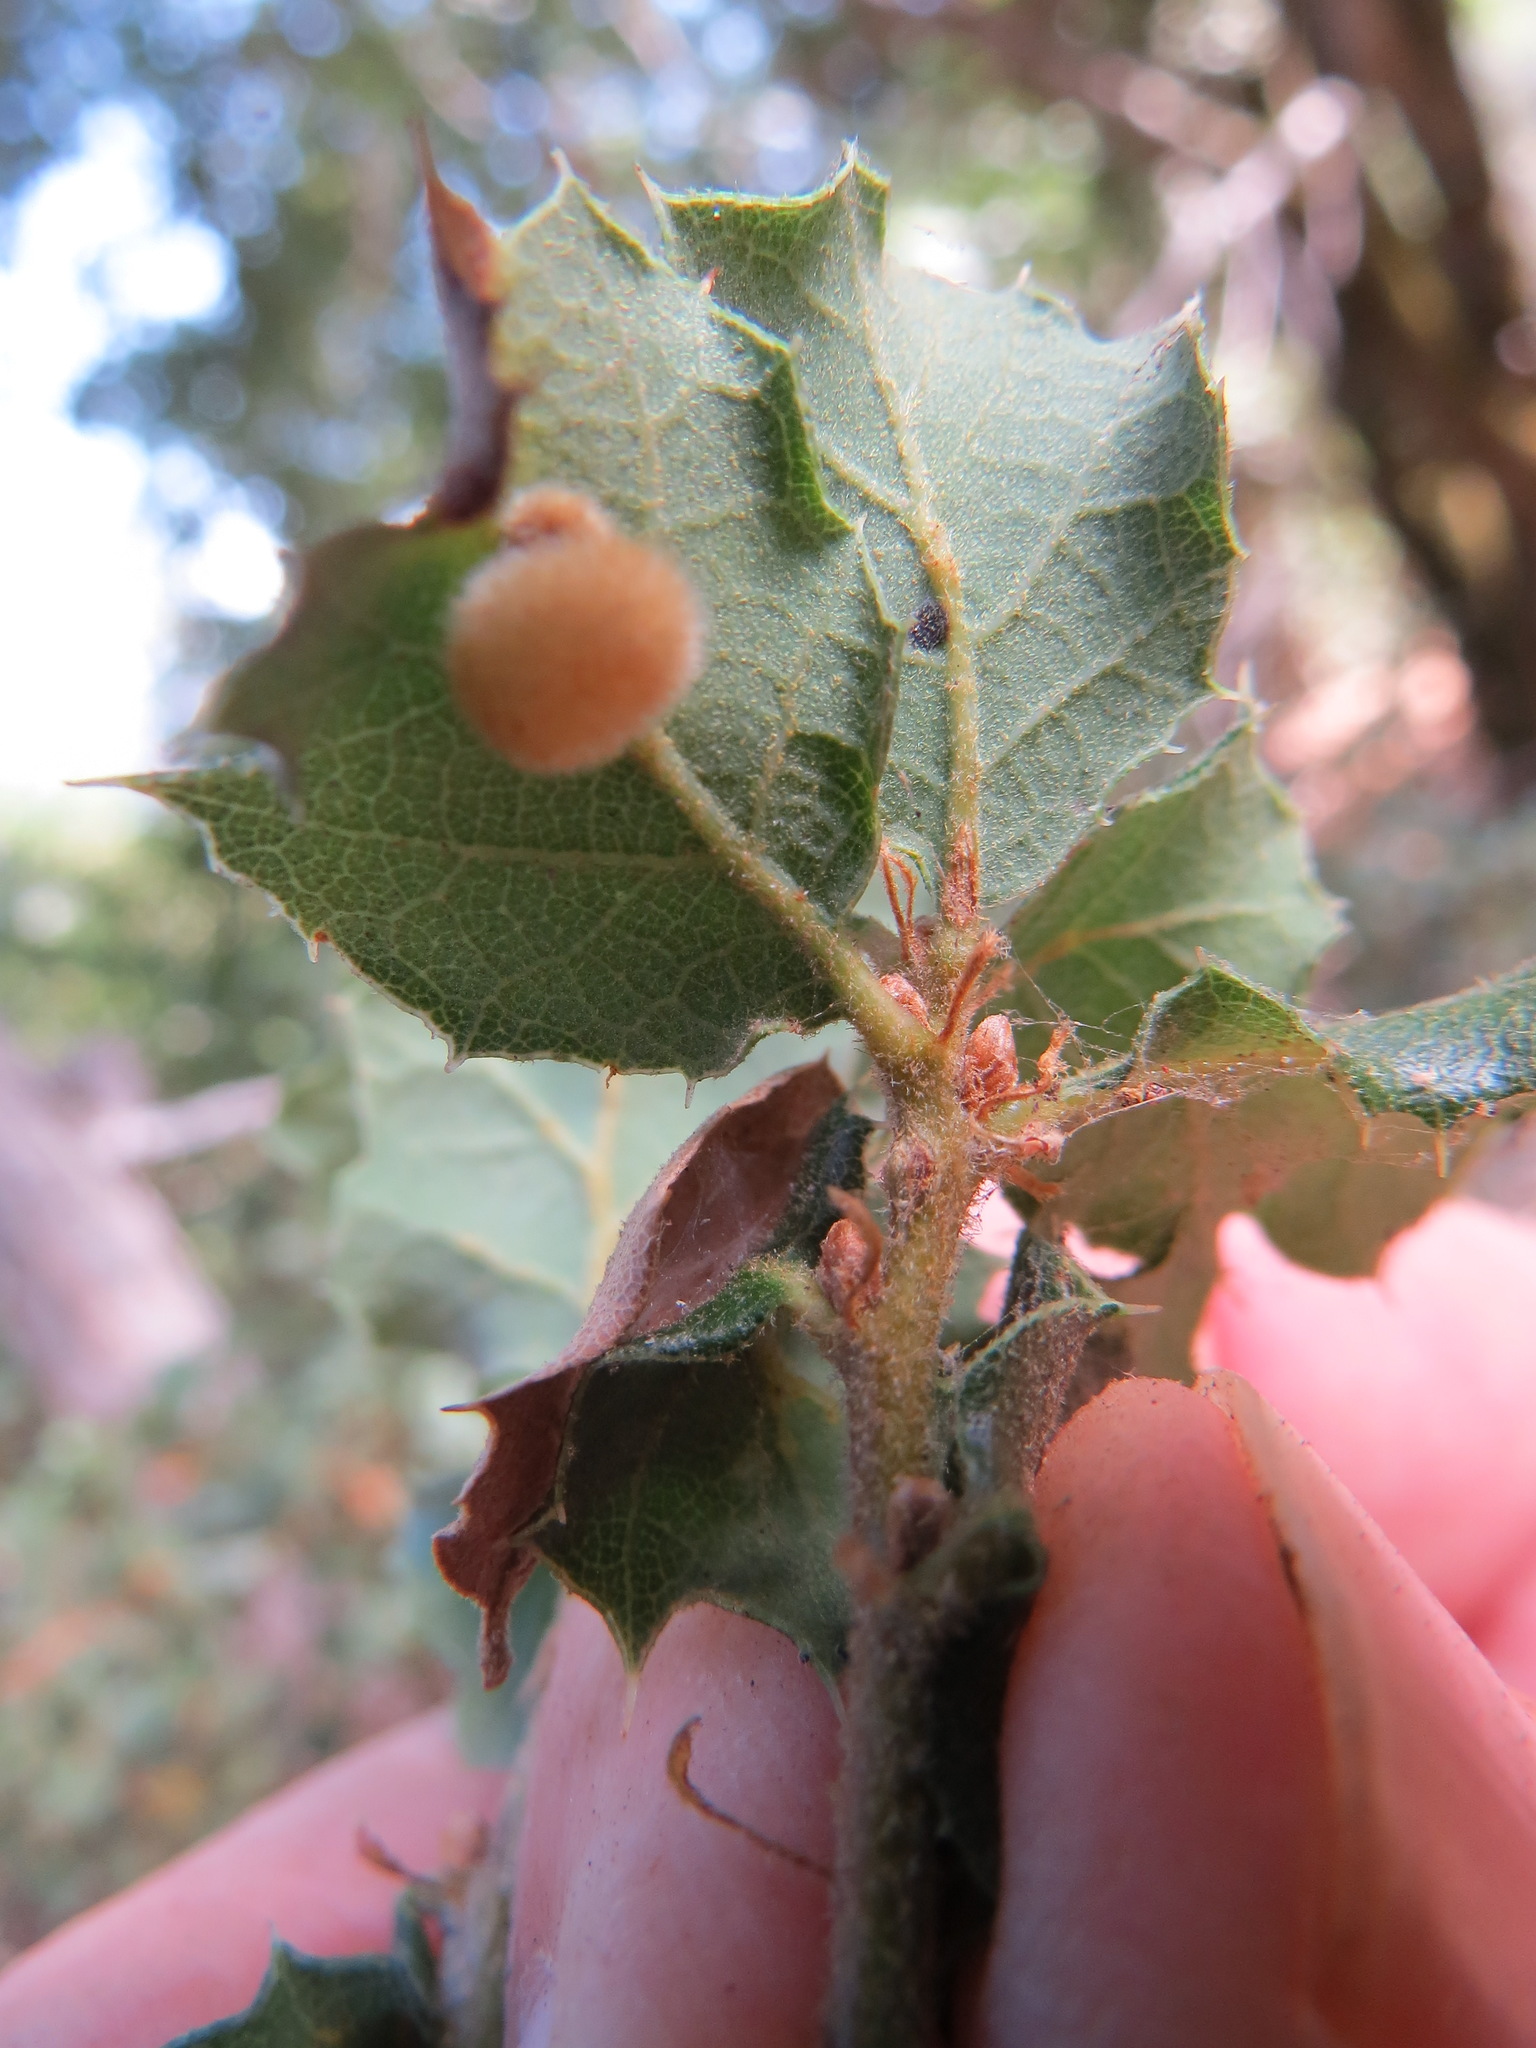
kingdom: Animalia
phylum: Arthropoda
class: Insecta
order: Hymenoptera
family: Cynipidae
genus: Atrusca
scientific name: Atrusca
